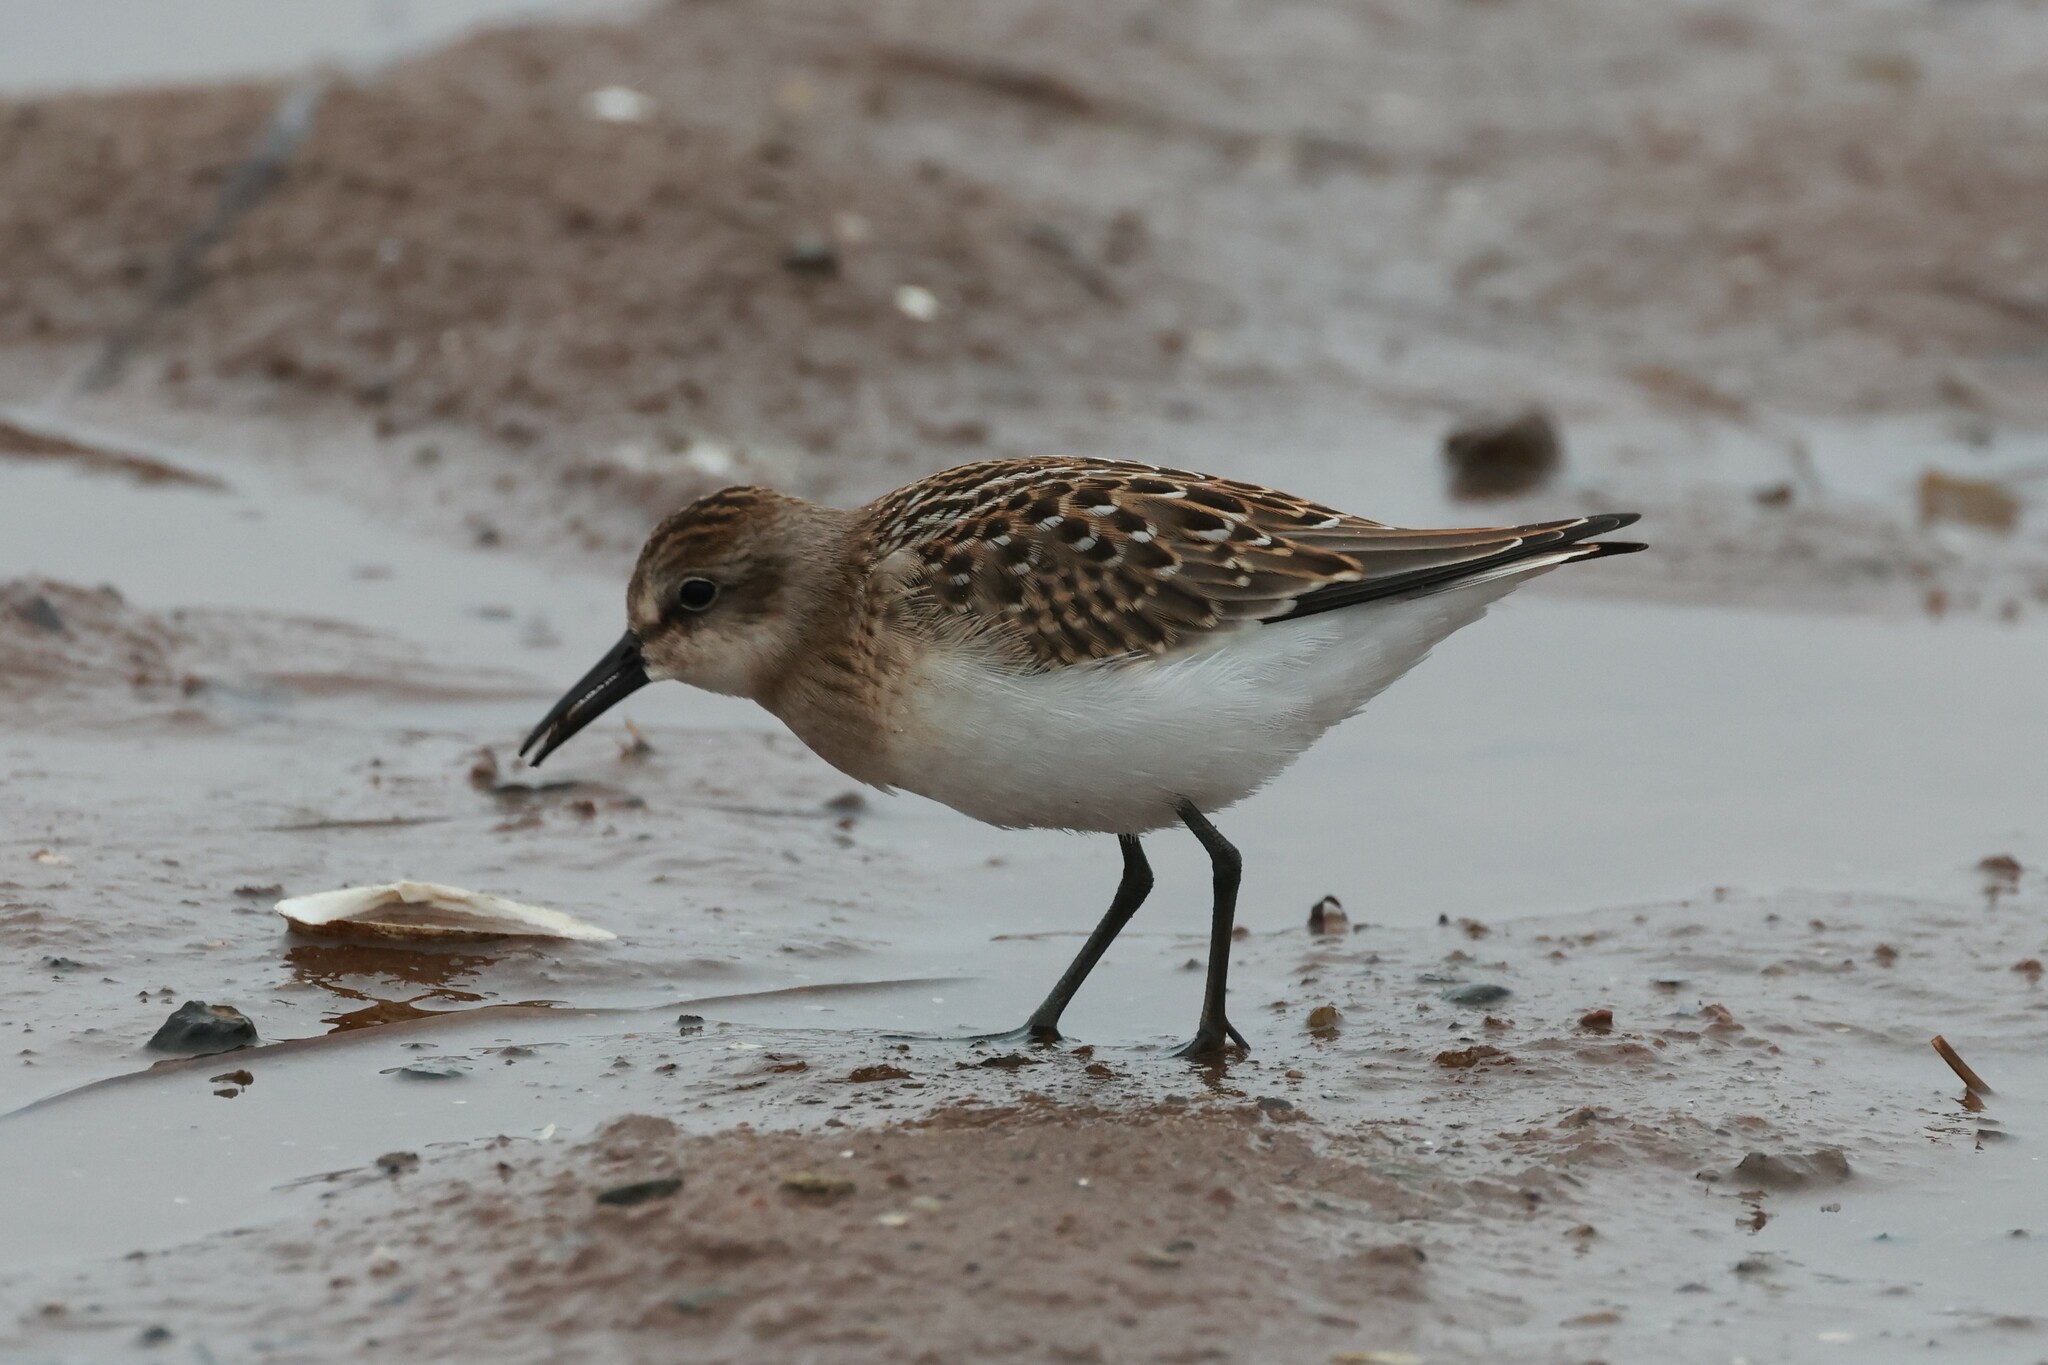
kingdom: Animalia
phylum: Chordata
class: Aves
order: Charadriiformes
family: Scolopacidae
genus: Calidris
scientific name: Calidris pusilla
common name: Semipalmated sandpiper
